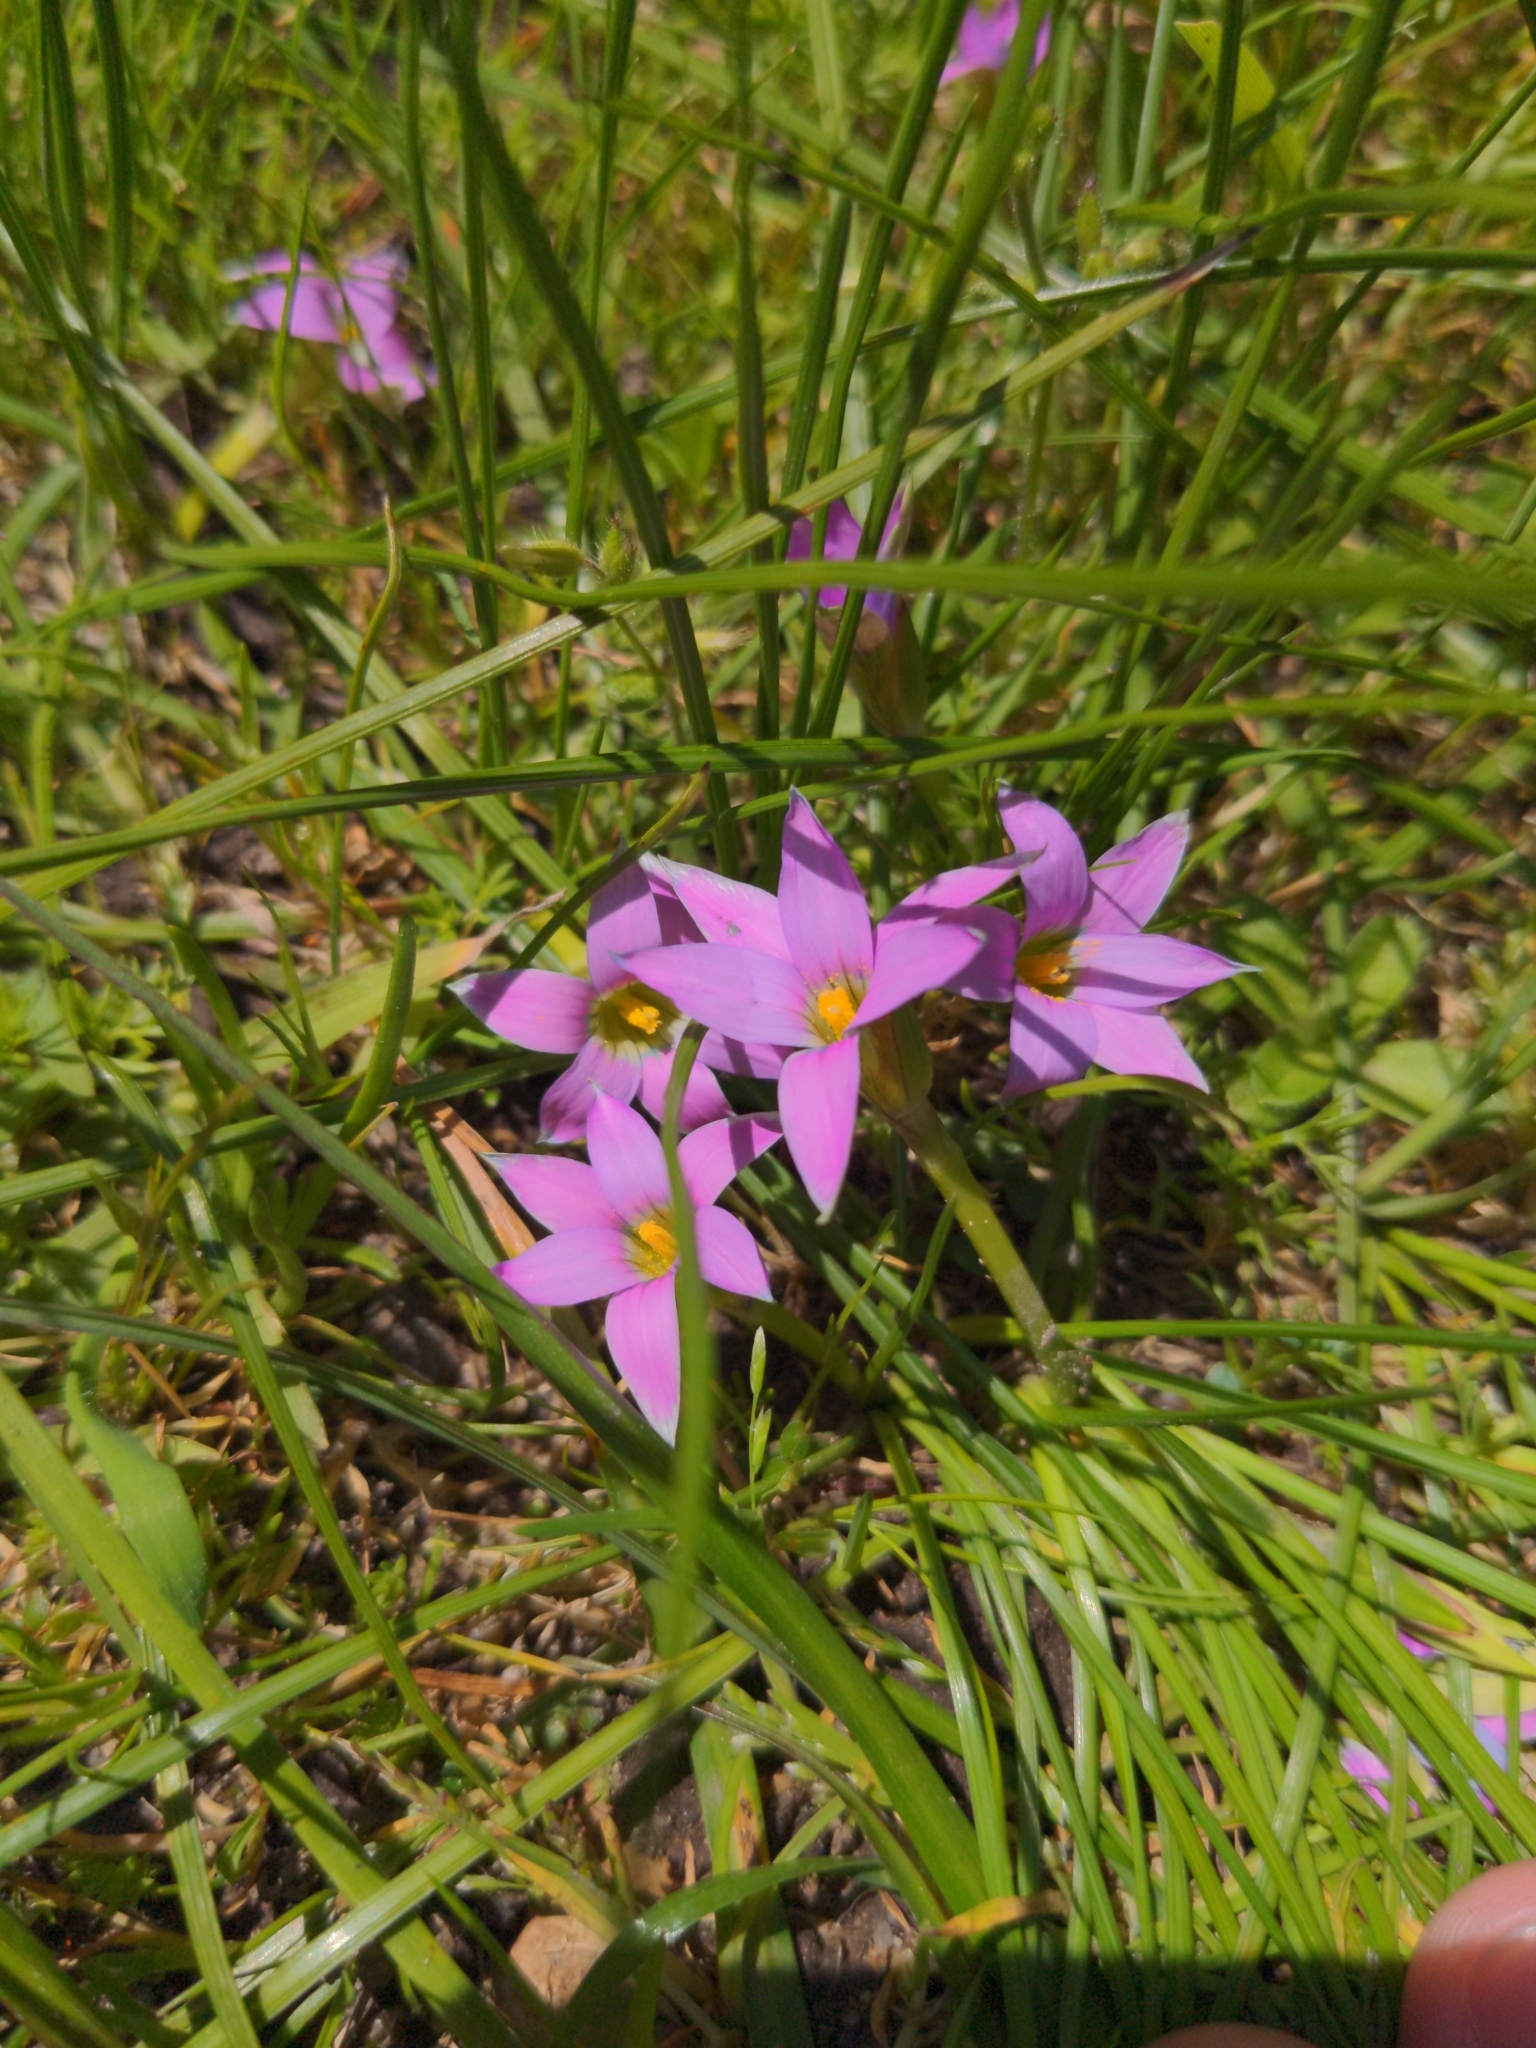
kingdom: Plantae
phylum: Tracheophyta
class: Liliopsida
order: Asparagales
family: Iridaceae
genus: Romulea
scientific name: Romulea rosea
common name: Oniongrass
